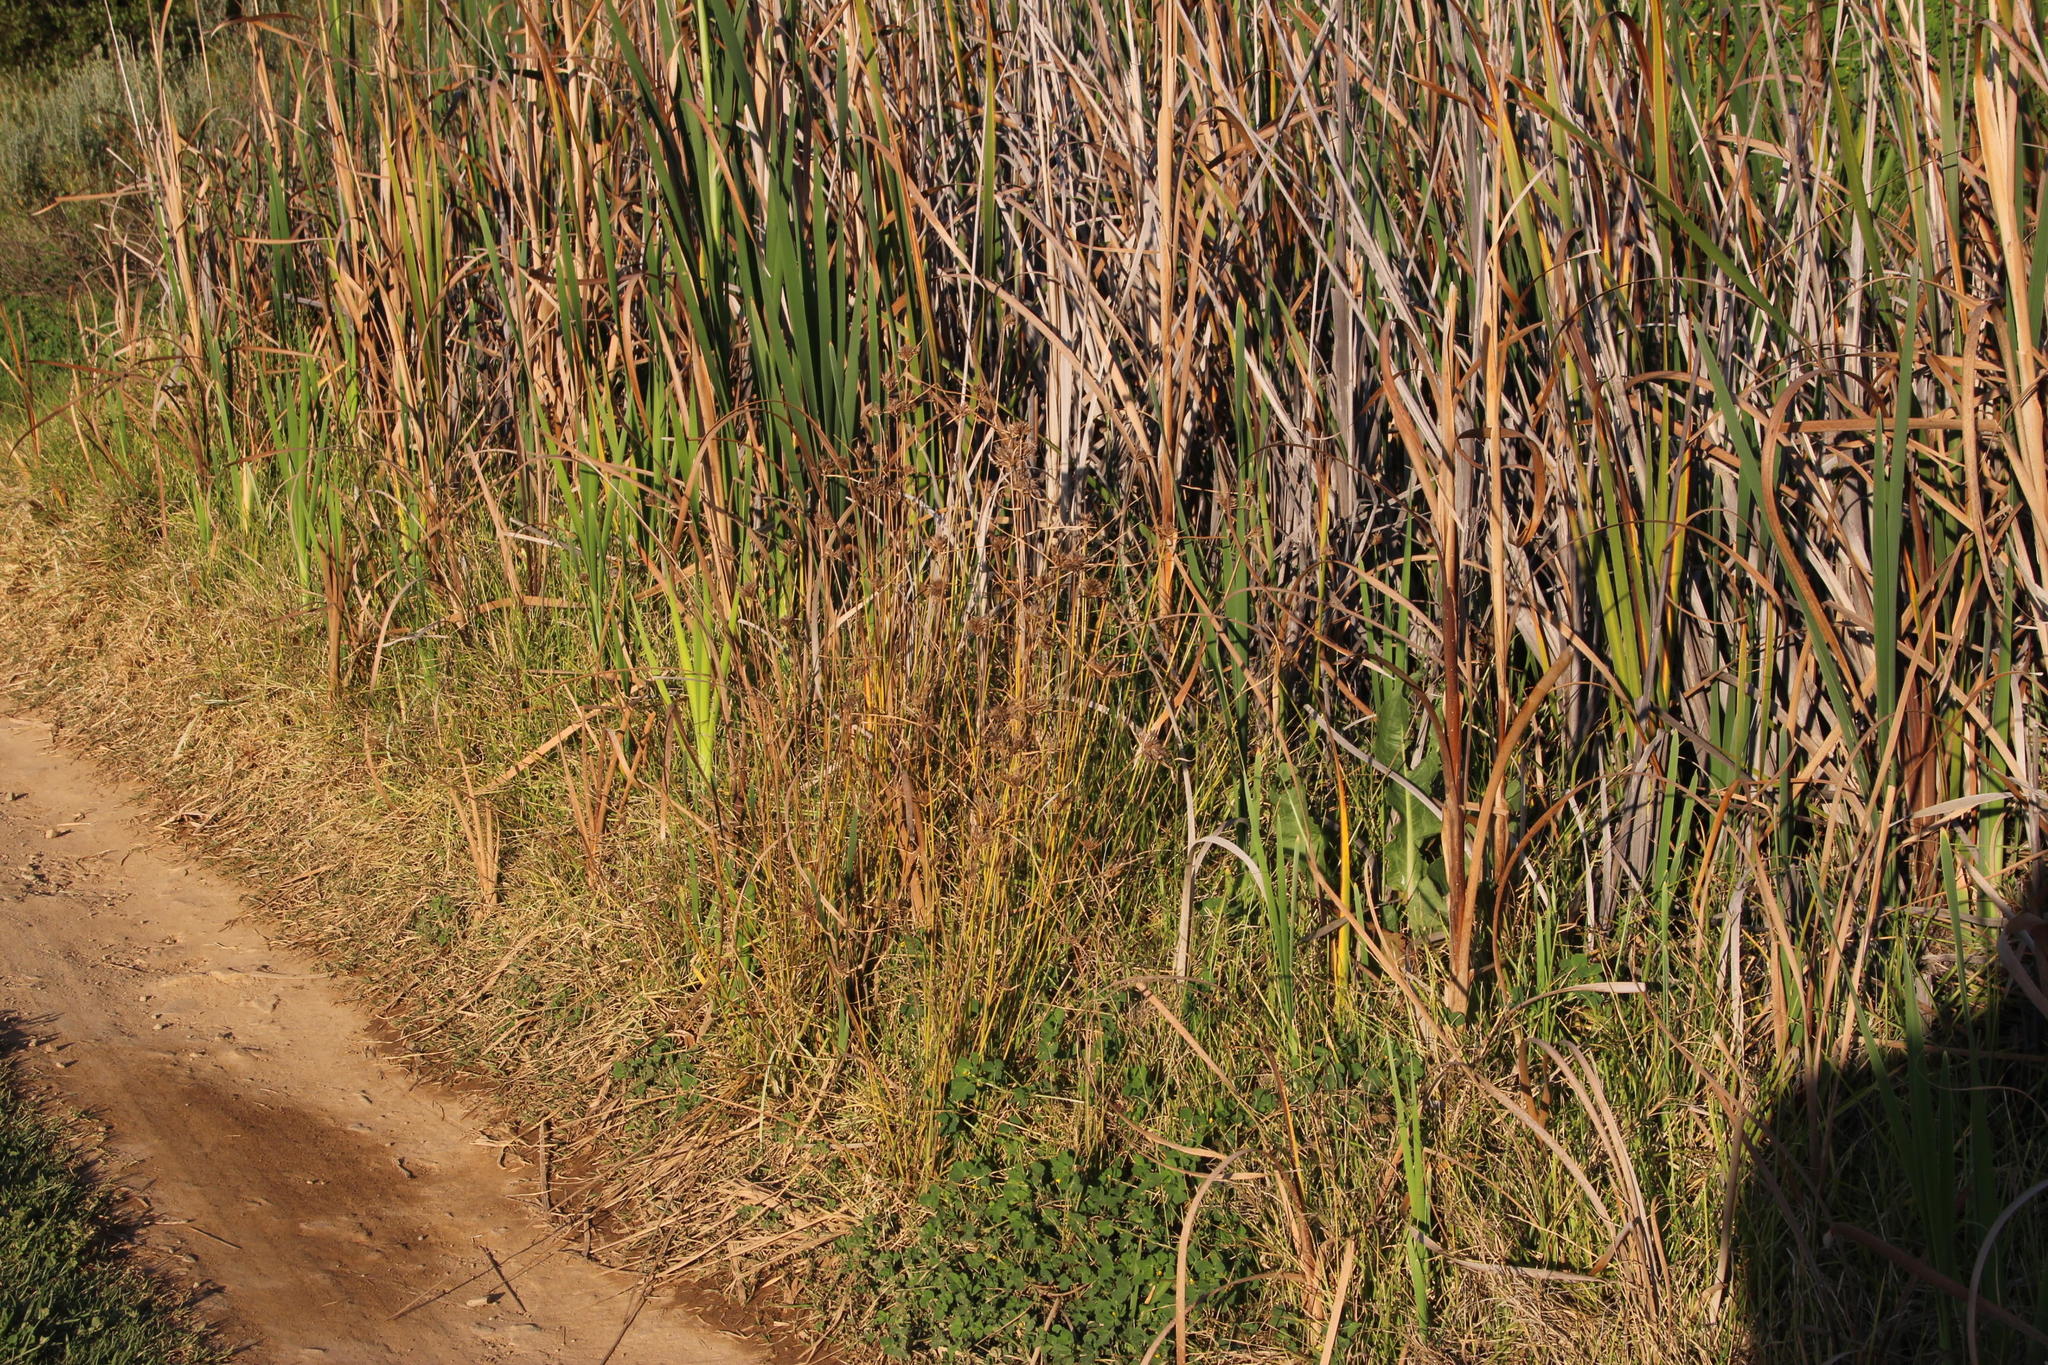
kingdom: Plantae
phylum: Tracheophyta
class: Liliopsida
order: Poales
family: Cyperaceae
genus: Cyperus
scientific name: Cyperus polystachyos
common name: Bunchy flat sedge
